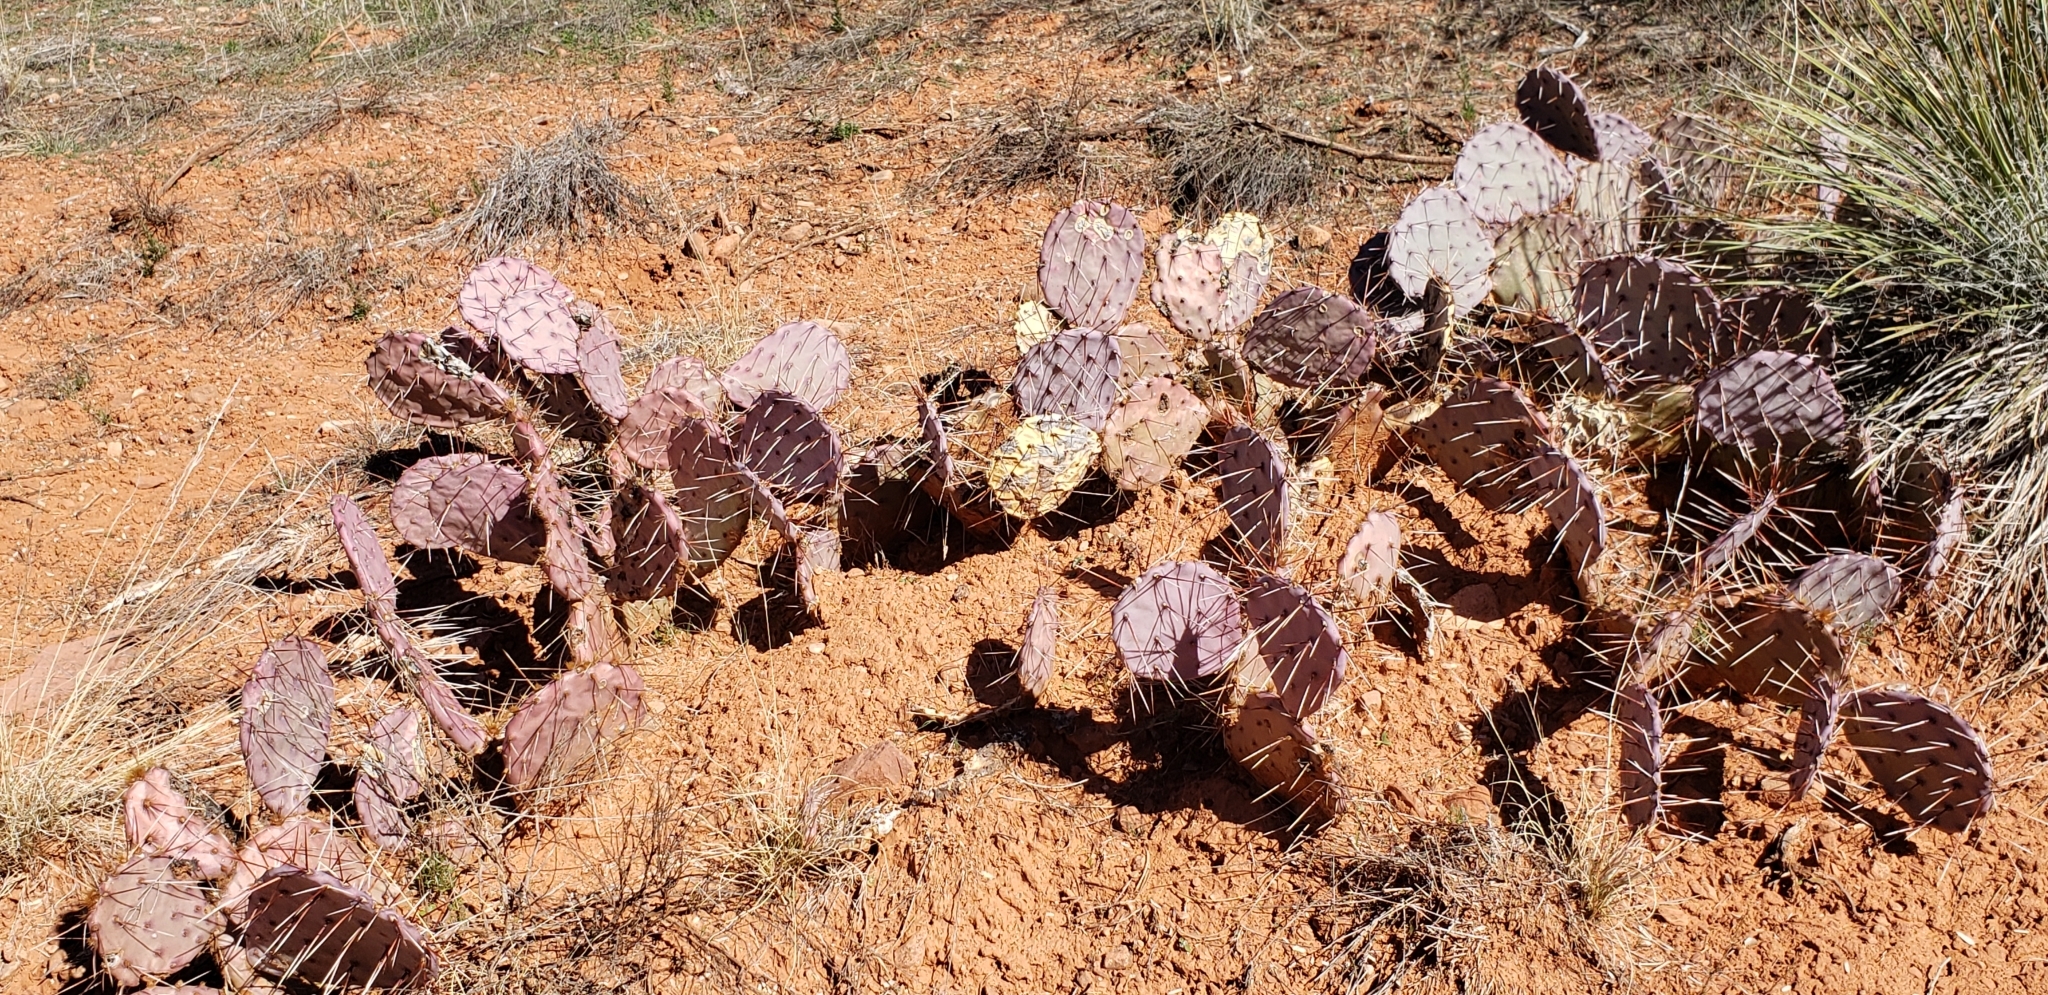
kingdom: Plantae
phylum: Tracheophyta
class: Magnoliopsida
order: Caryophyllales
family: Cactaceae
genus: Opuntia
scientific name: Opuntia phaeacantha
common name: New mexico prickly-pear
